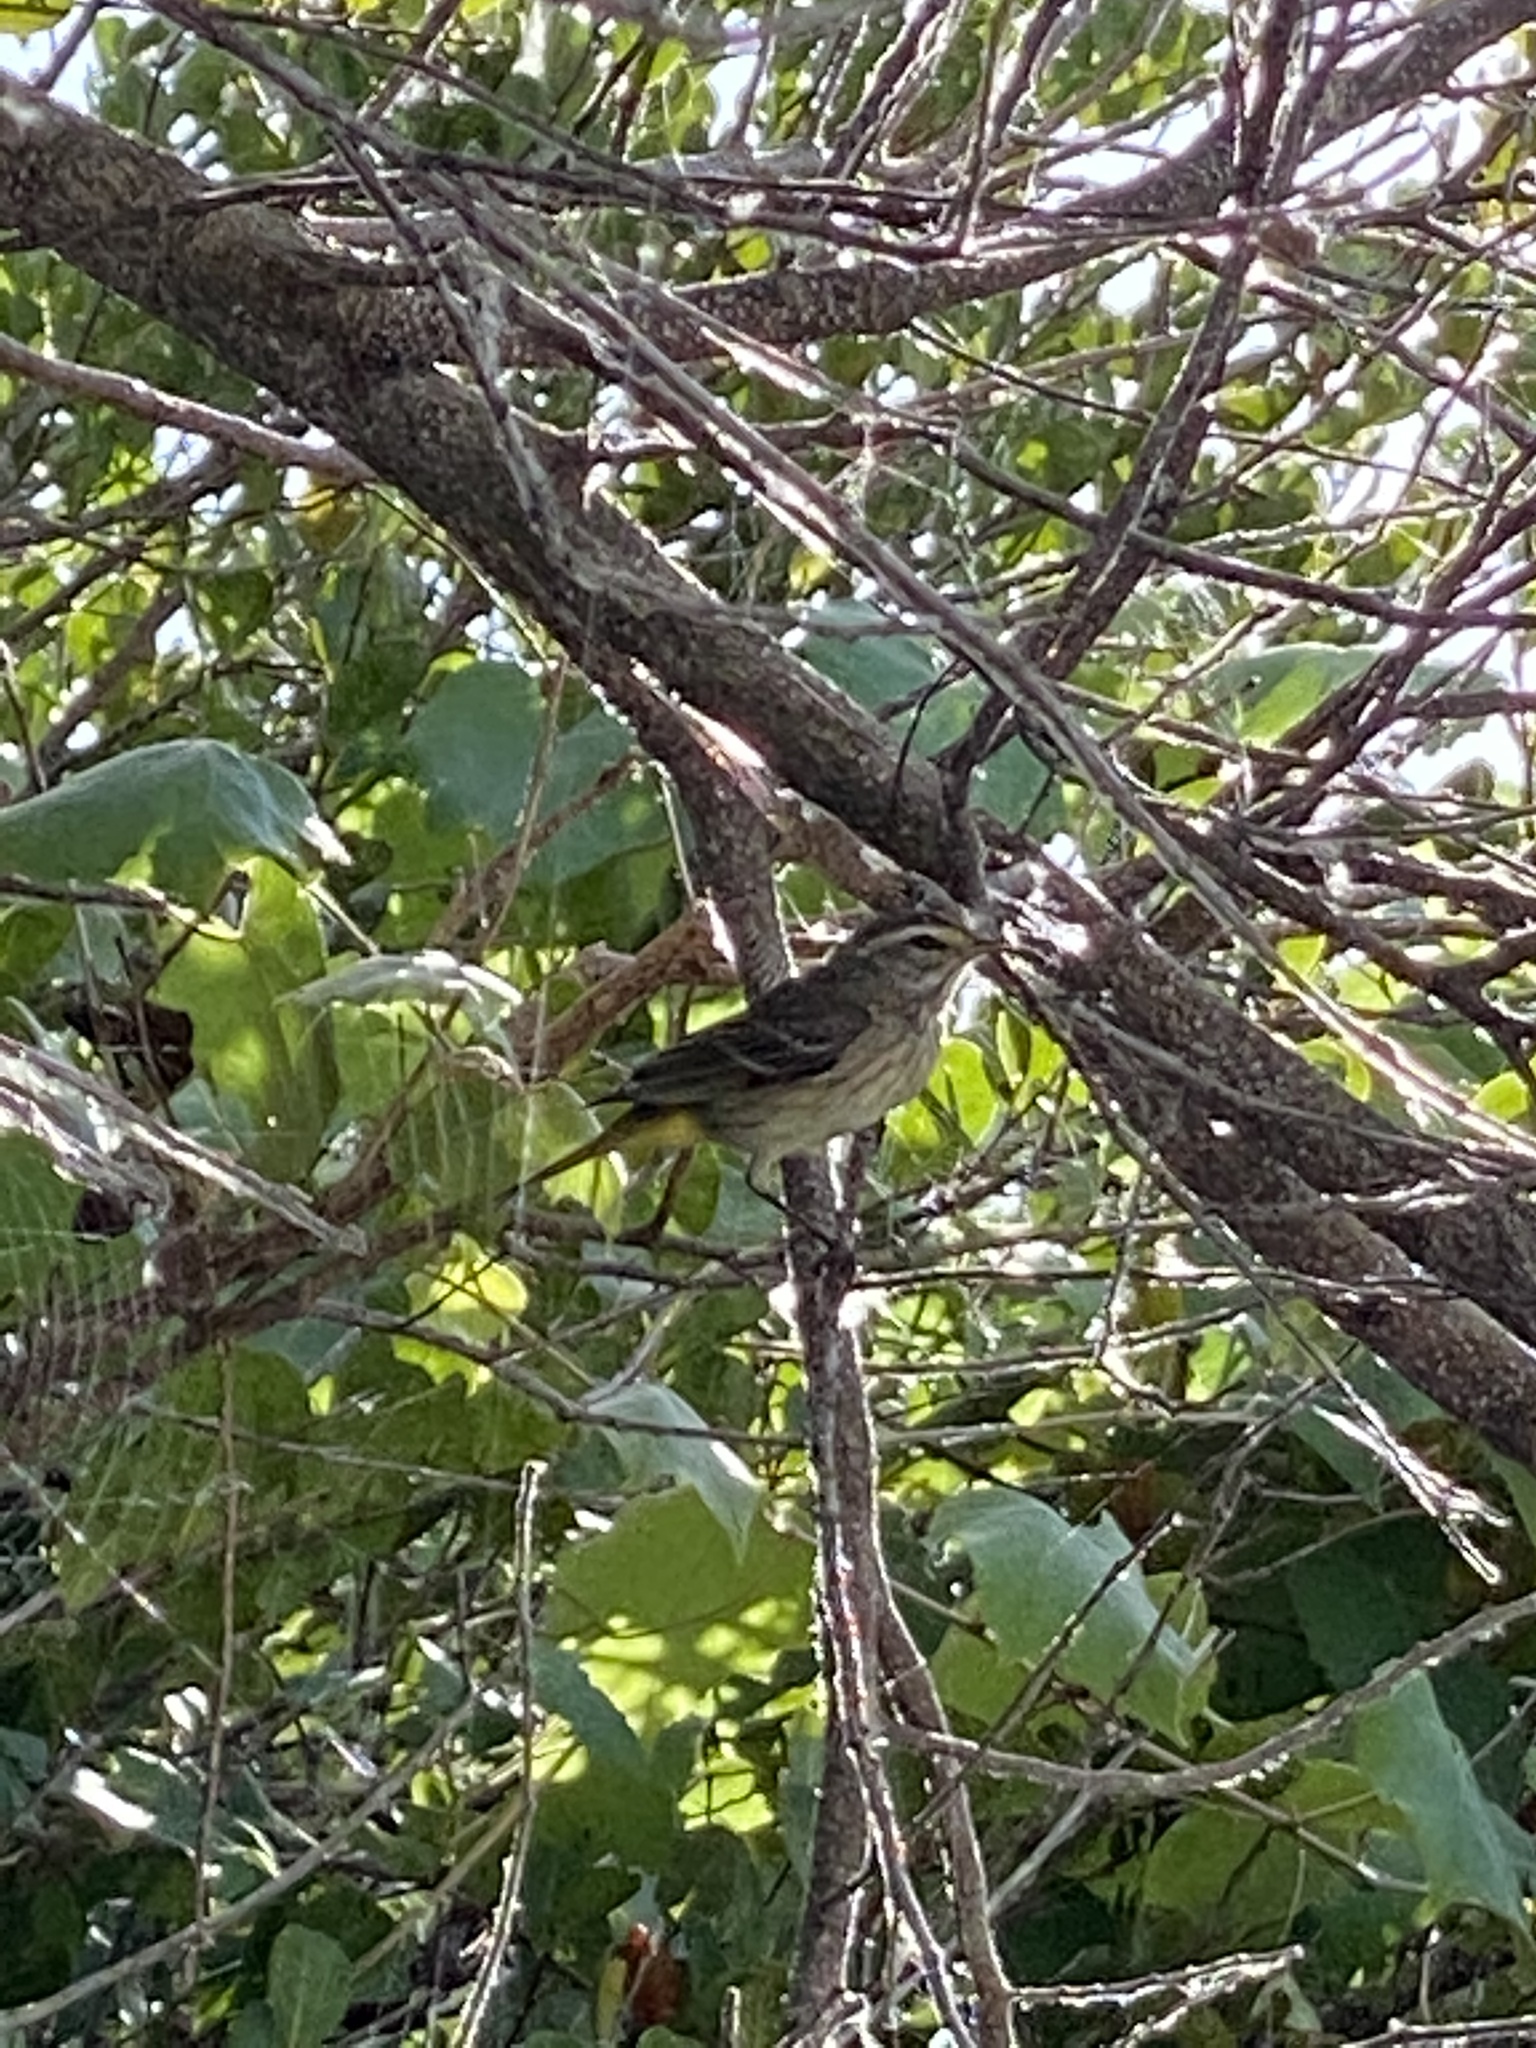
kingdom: Animalia
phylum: Chordata
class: Aves
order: Passeriformes
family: Parulidae
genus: Setophaga
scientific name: Setophaga palmarum
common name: Palm warbler
